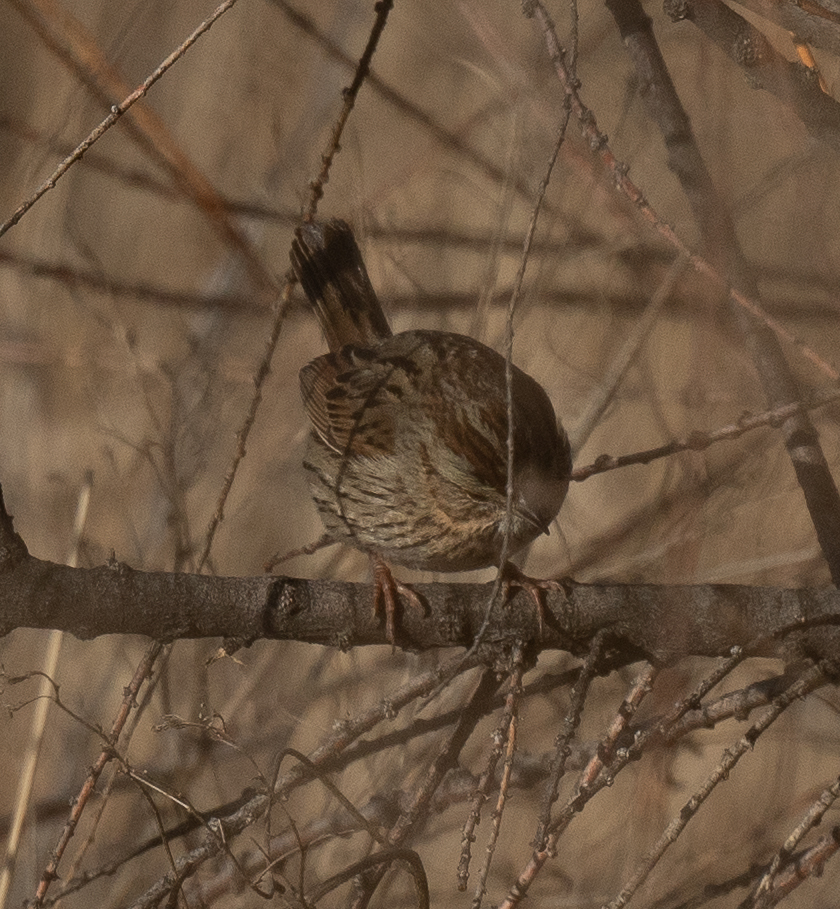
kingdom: Animalia
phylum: Chordata
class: Aves
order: Passeriformes
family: Passerellidae
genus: Melospiza
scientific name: Melospiza lincolnii
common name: Lincoln's sparrow
